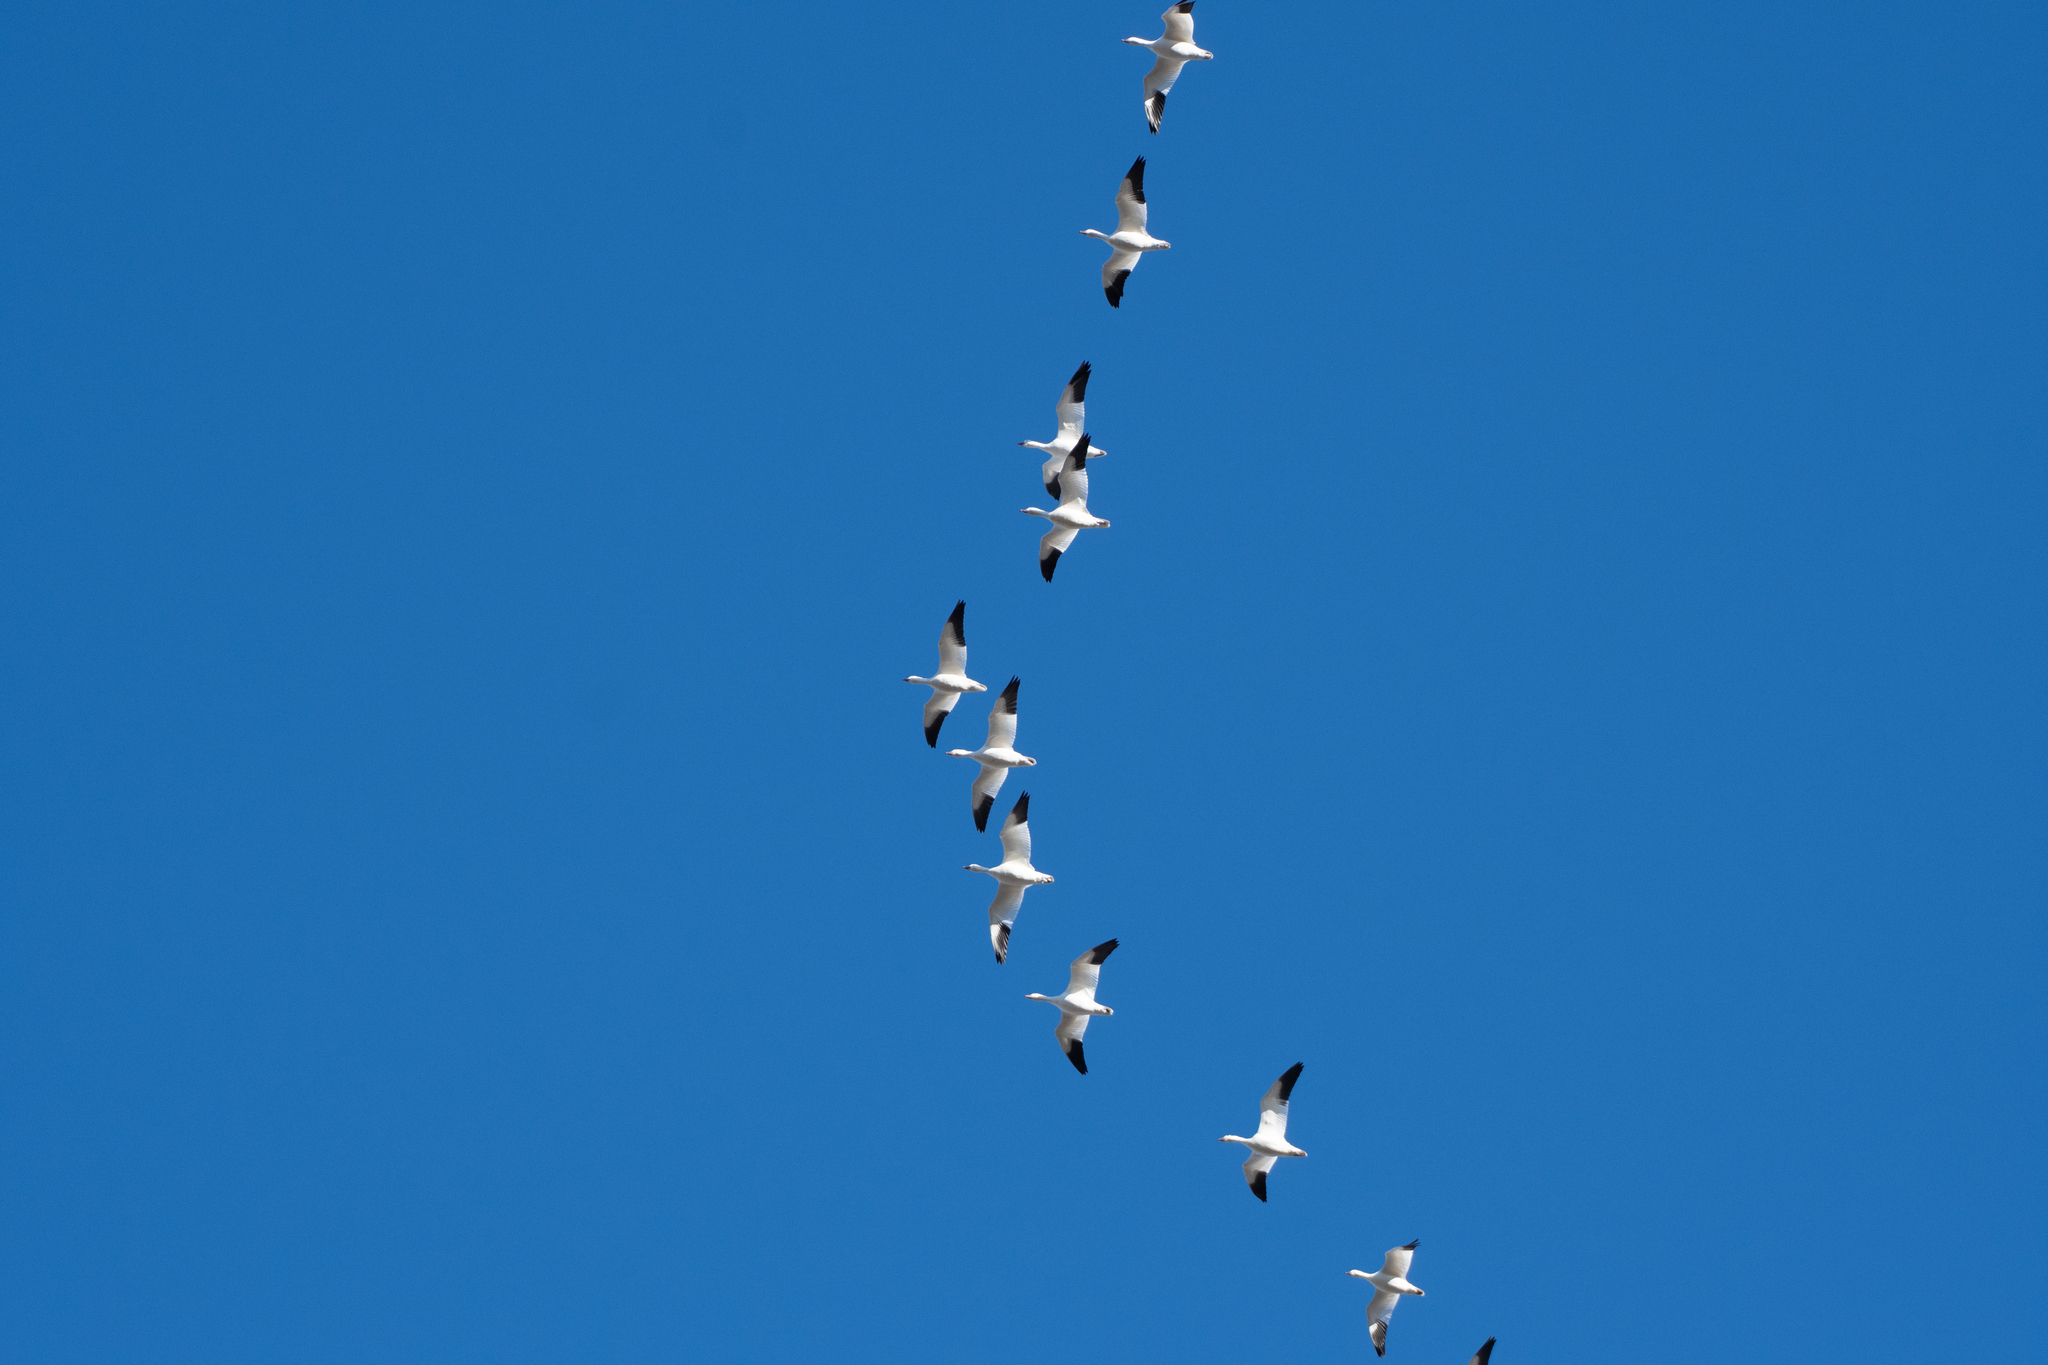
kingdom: Animalia
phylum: Chordata
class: Aves
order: Anseriformes
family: Anatidae
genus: Anser
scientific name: Anser caerulescens
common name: Snow goose
